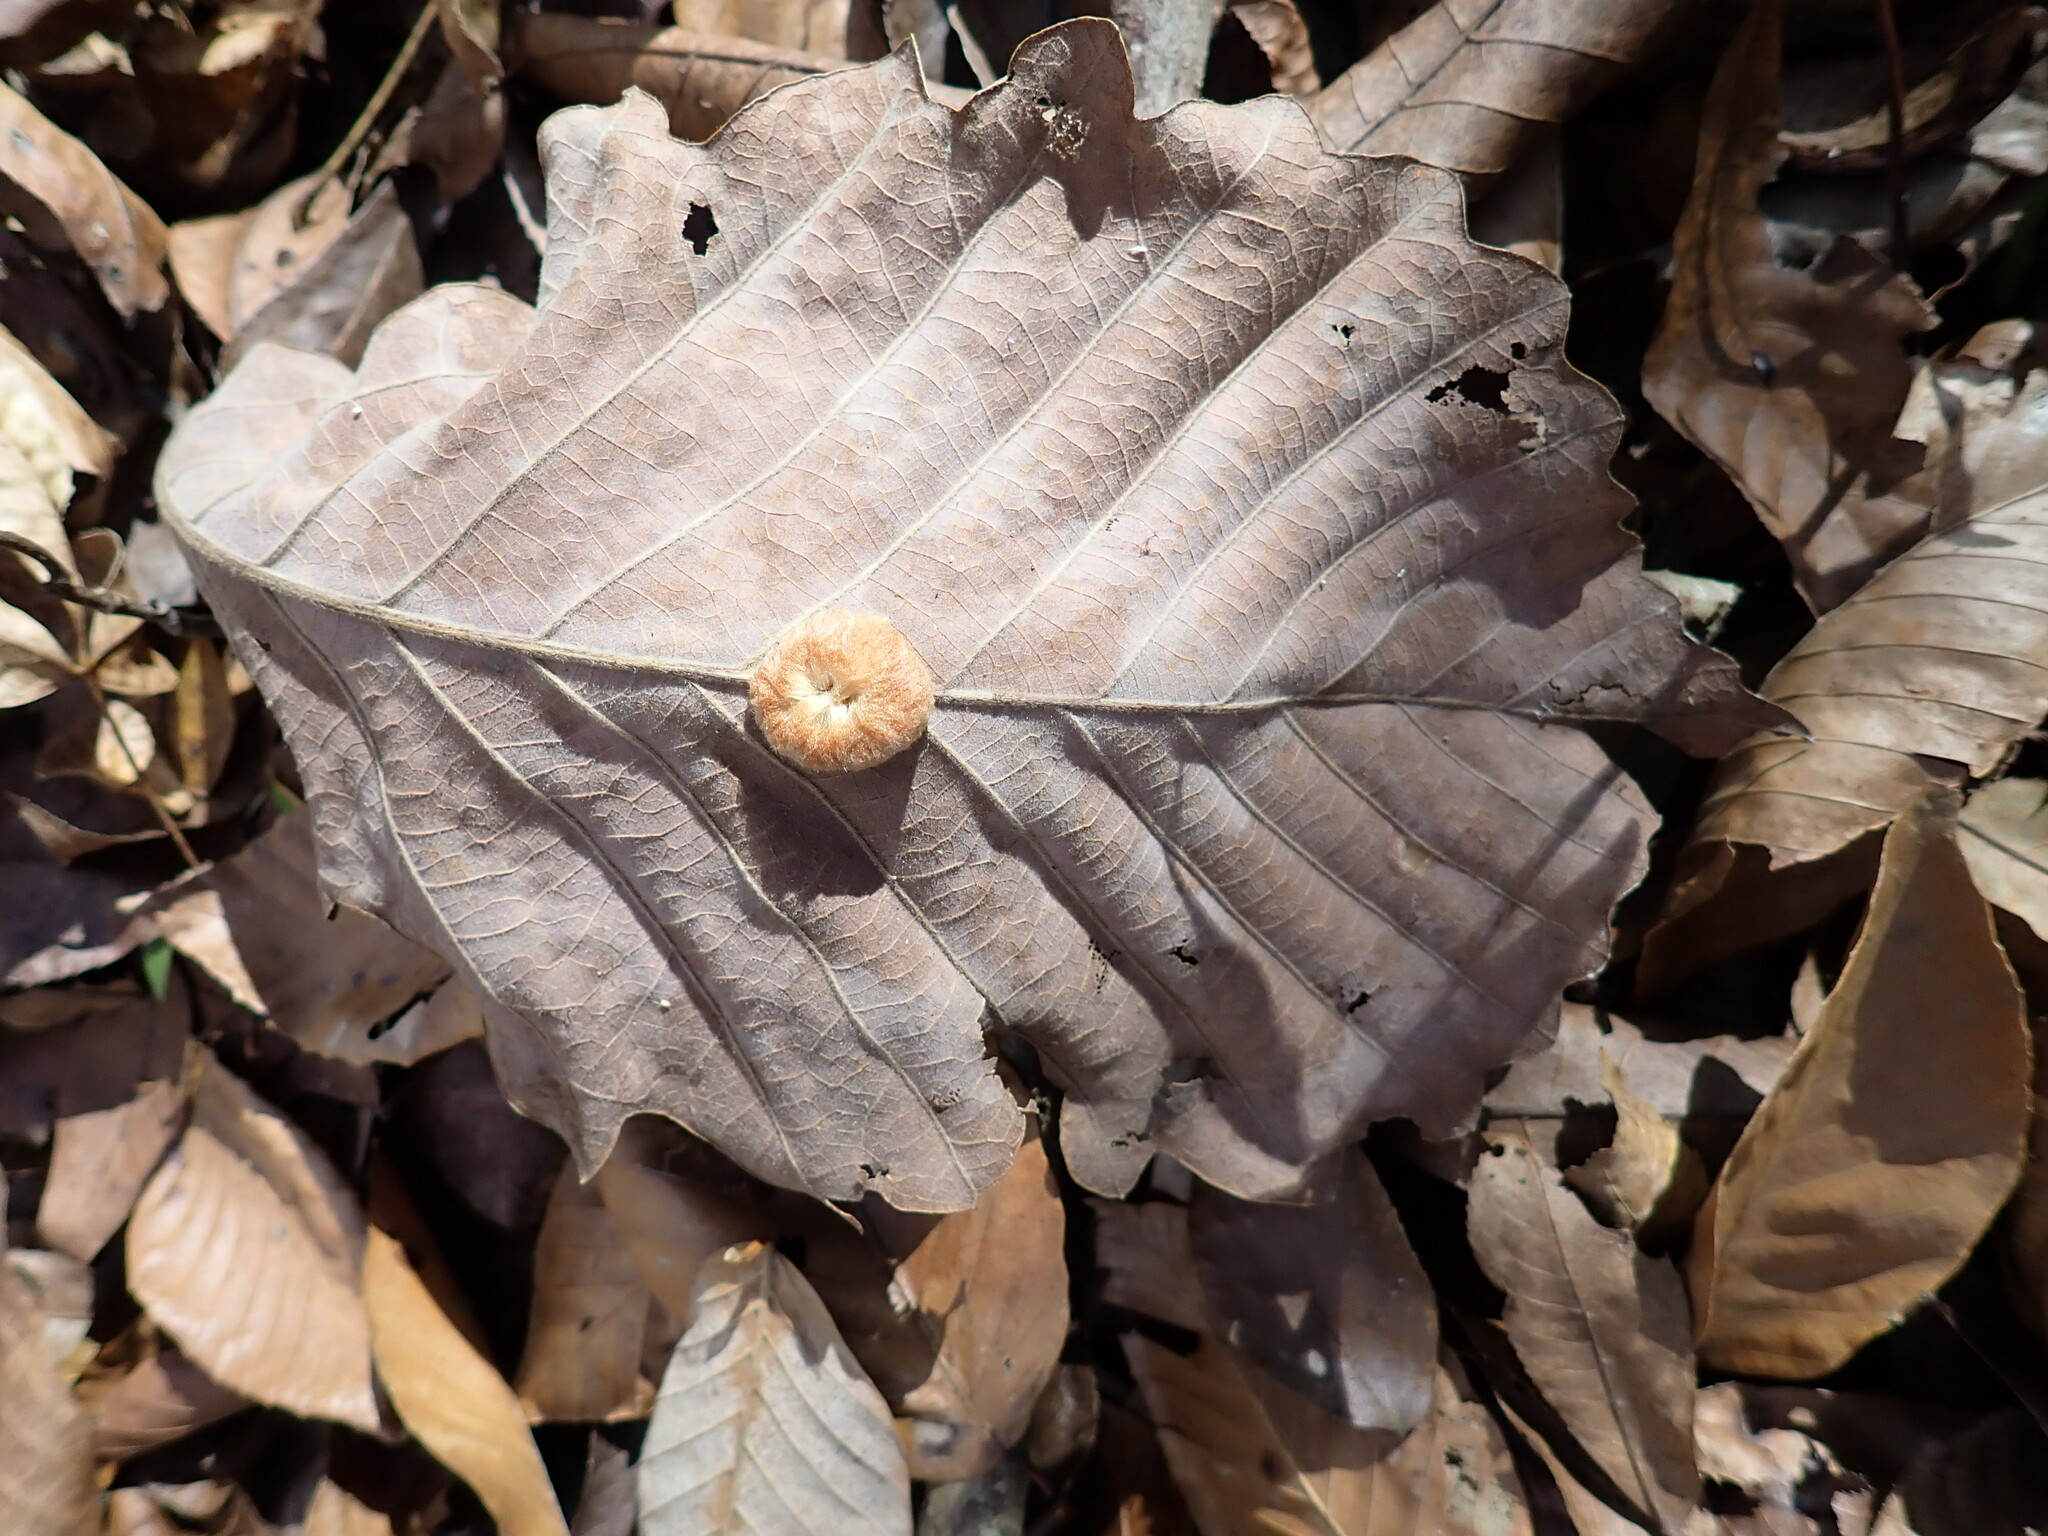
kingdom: Animalia
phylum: Arthropoda
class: Insecta
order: Hymenoptera
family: Cynipidae
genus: Andricus
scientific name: Andricus quercusflocci
